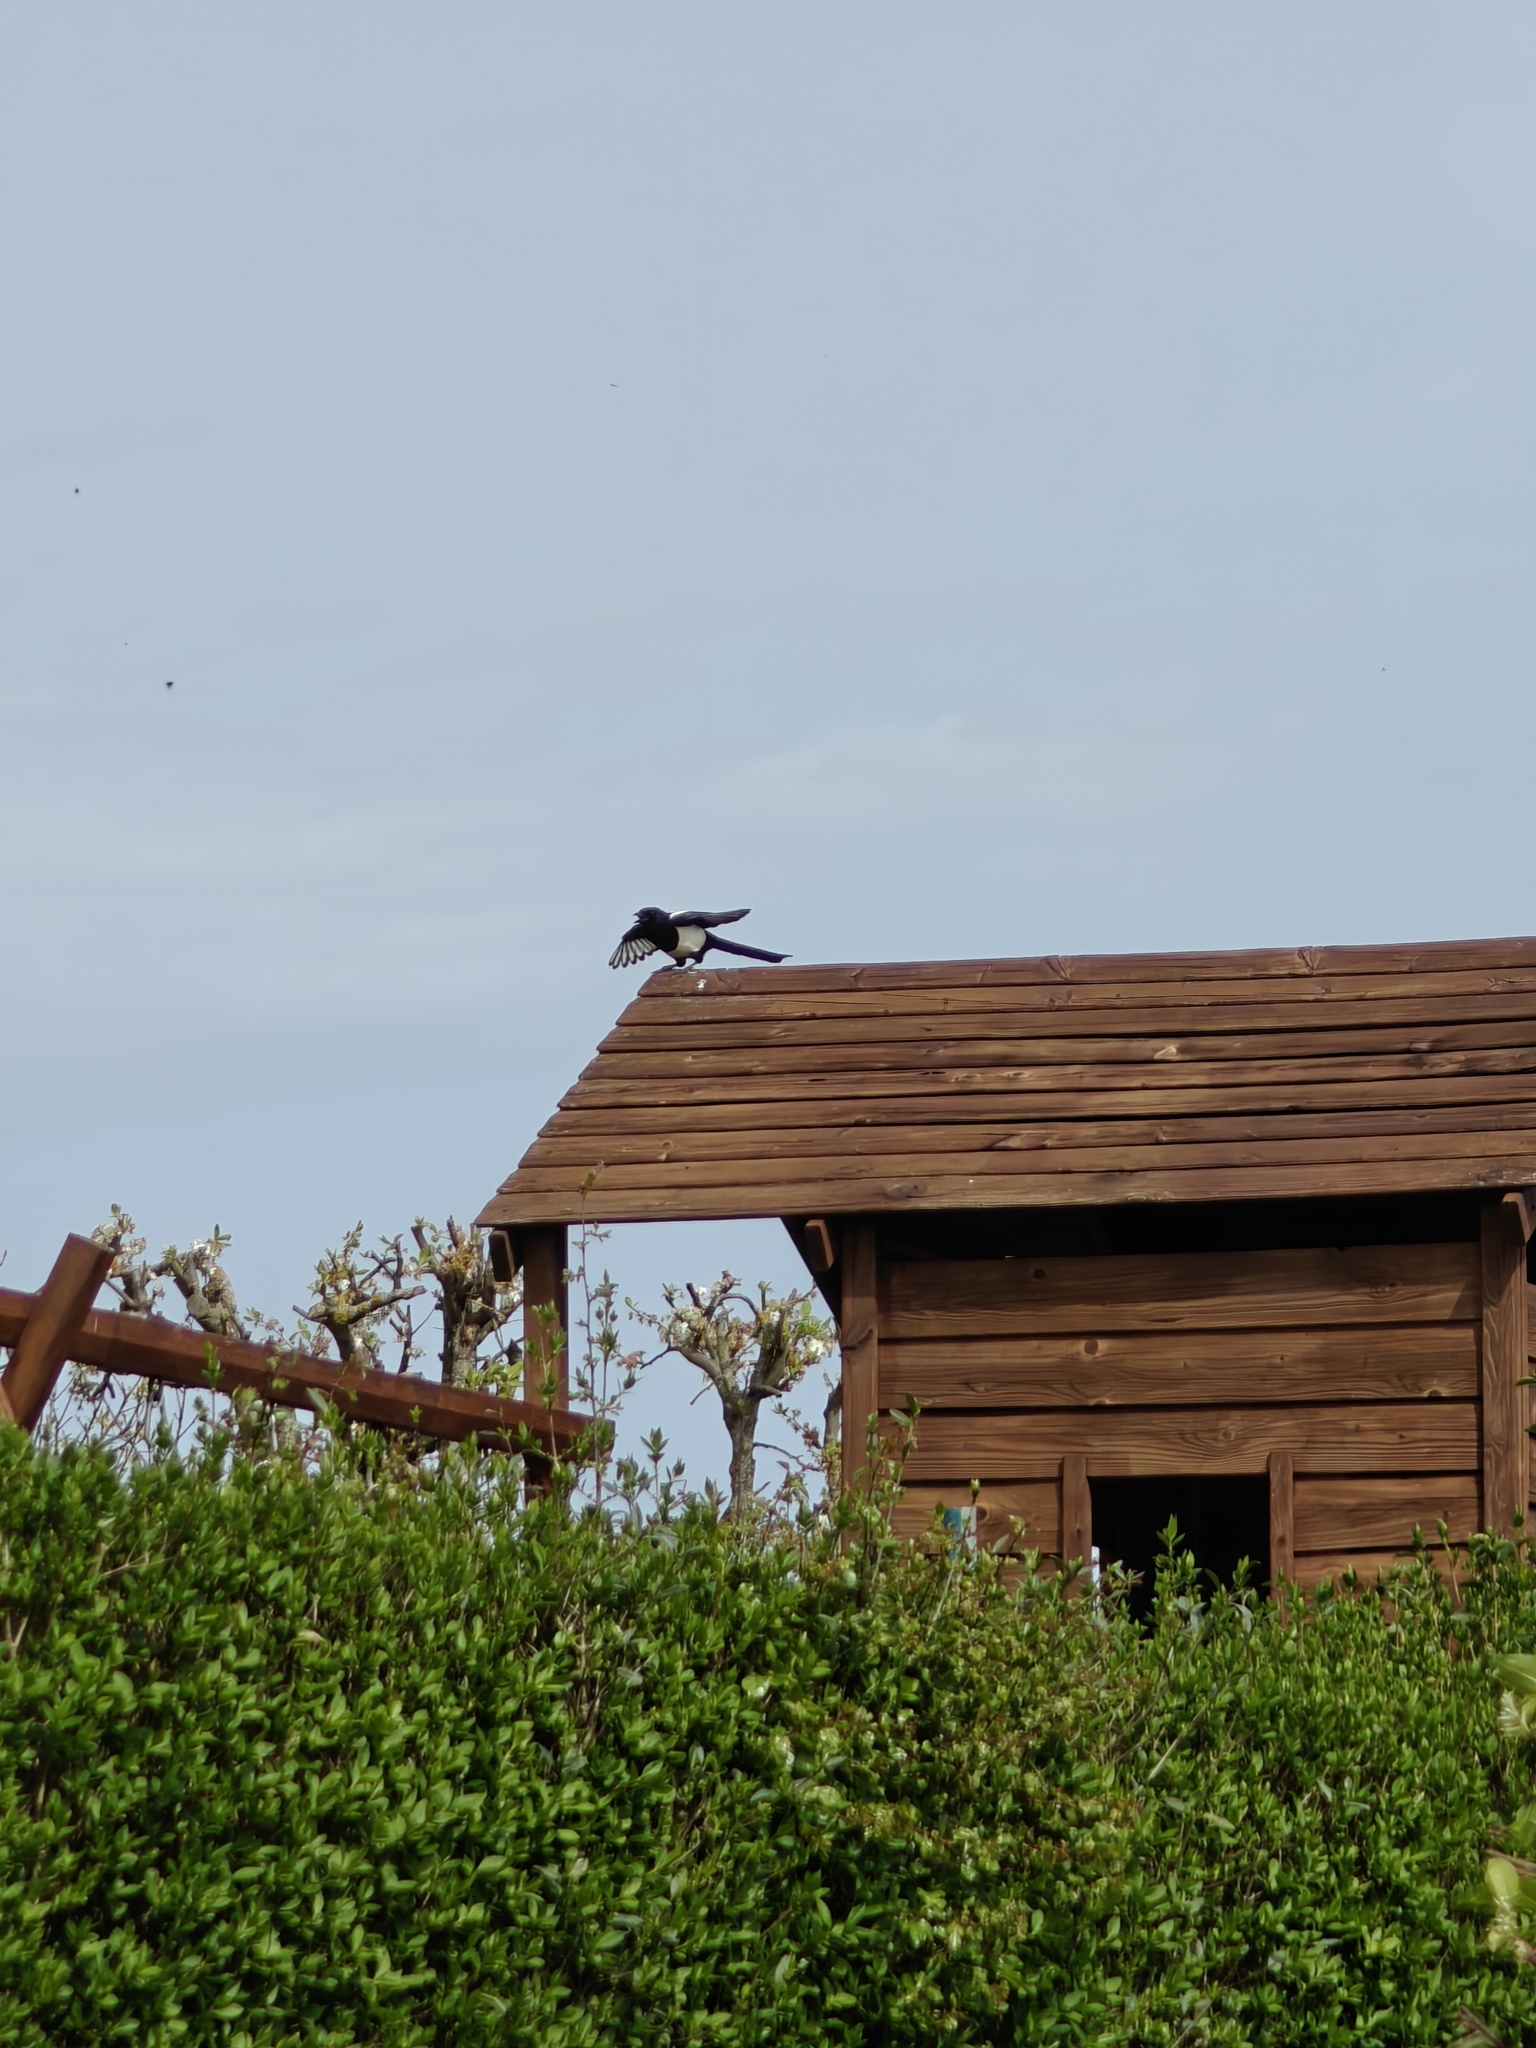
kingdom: Animalia
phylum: Chordata
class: Aves
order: Passeriformes
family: Corvidae
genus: Pica
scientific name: Pica pica
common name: Eurasian magpie
